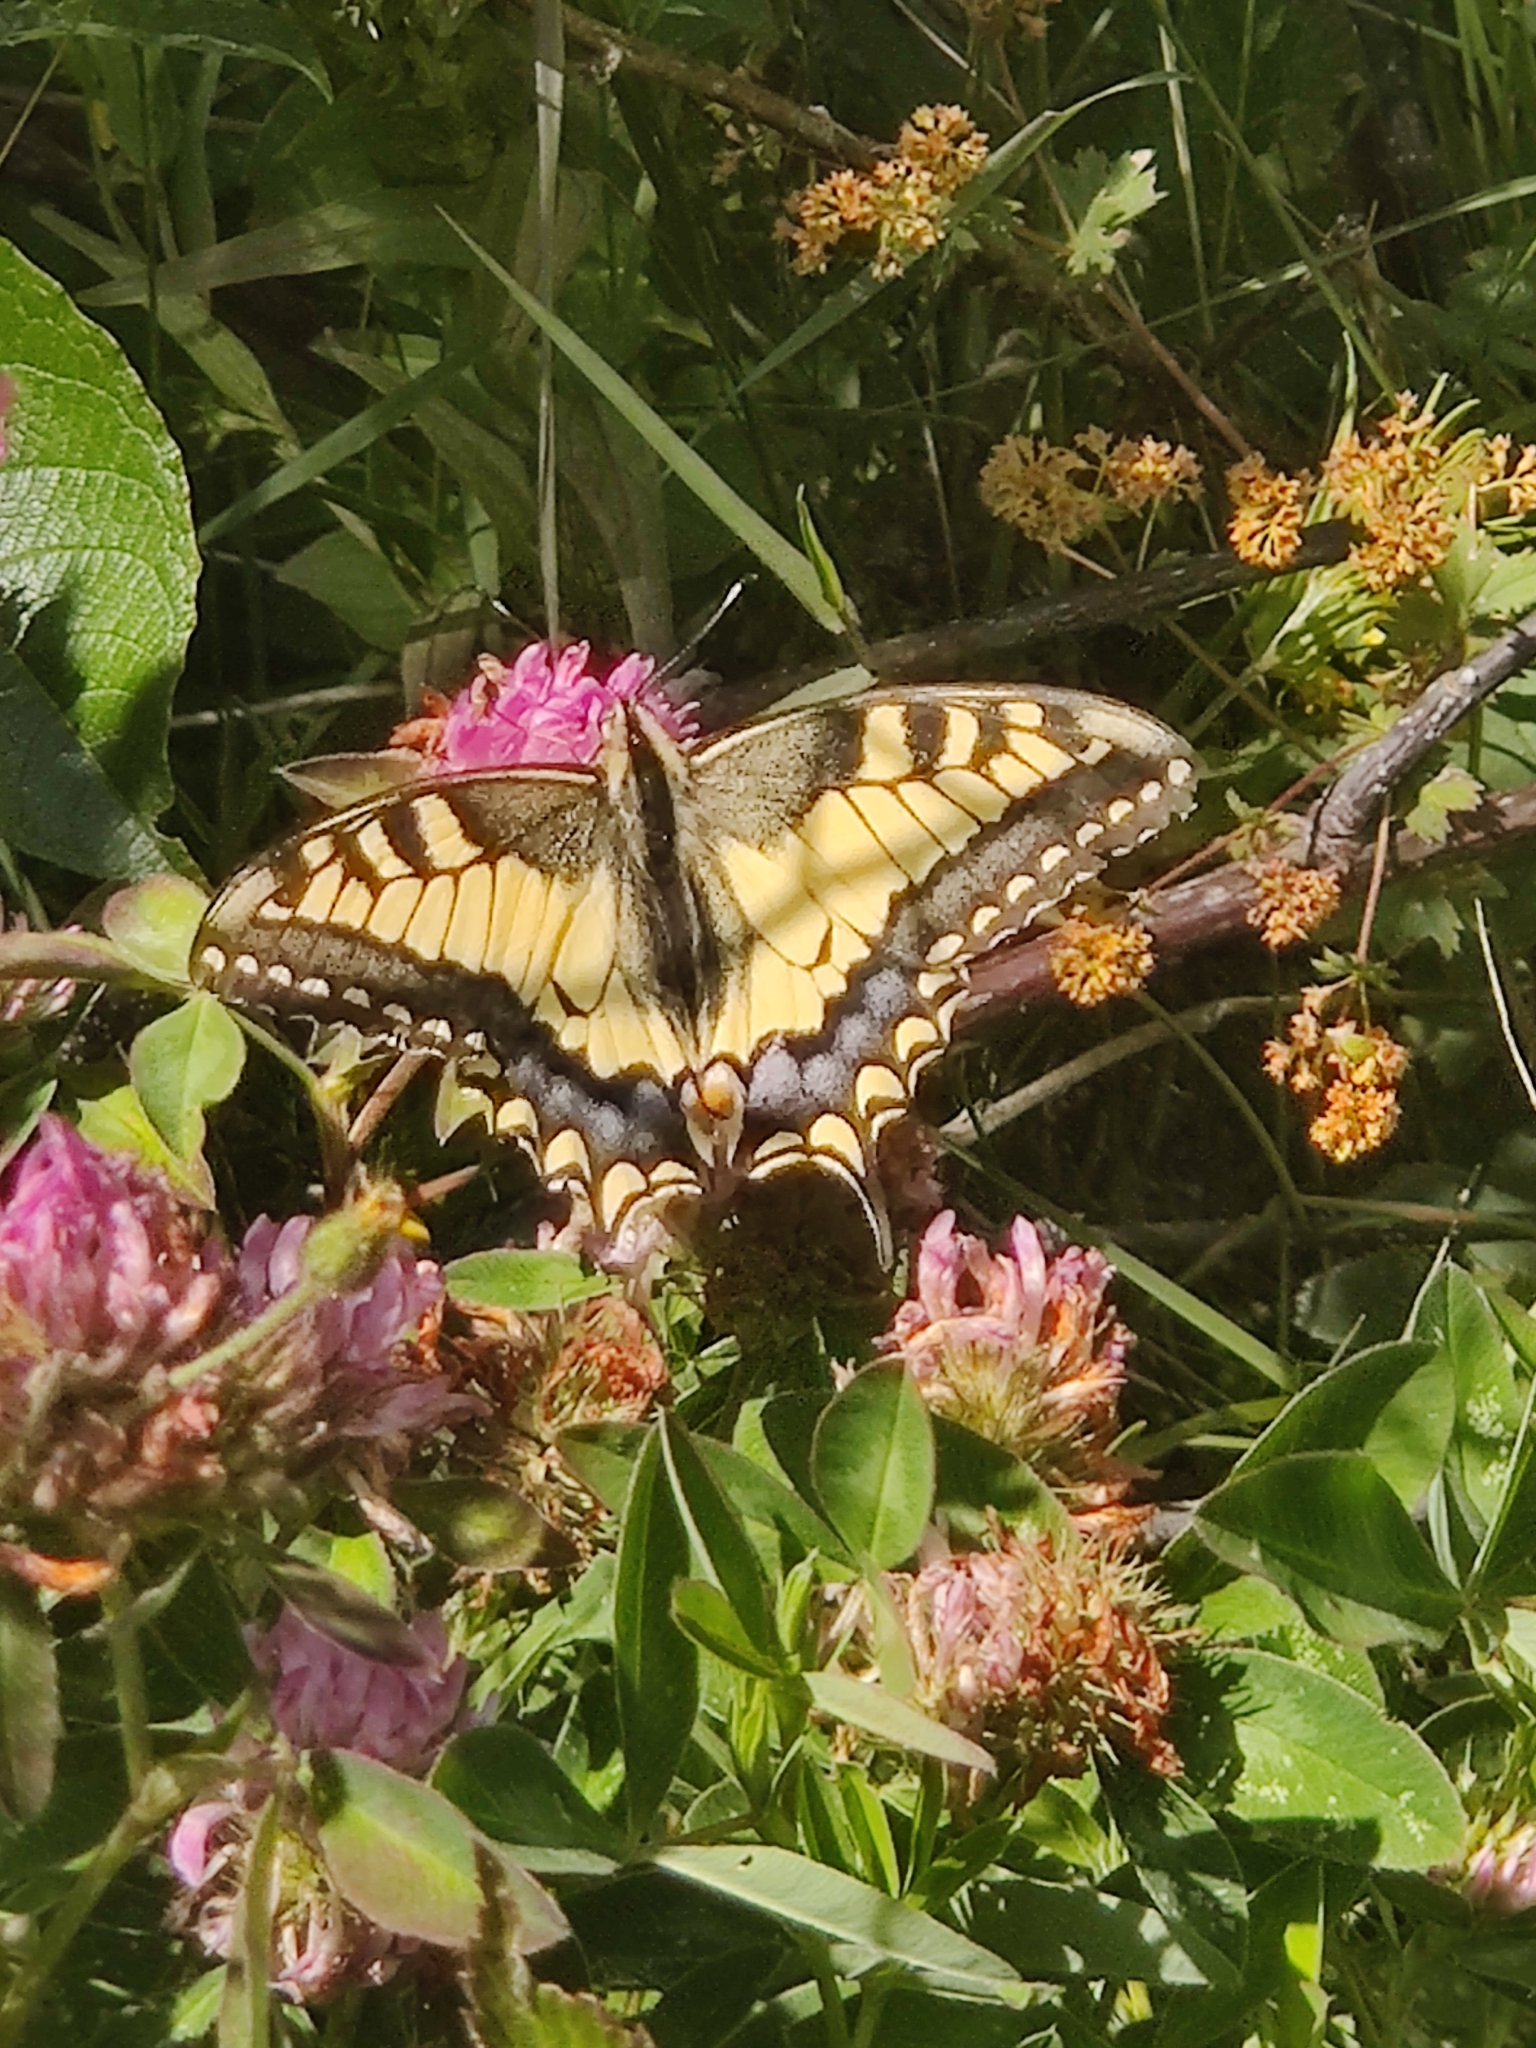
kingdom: Animalia
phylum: Arthropoda
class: Insecta
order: Lepidoptera
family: Papilionidae
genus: Papilio
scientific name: Papilio machaon
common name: Swallowtail
